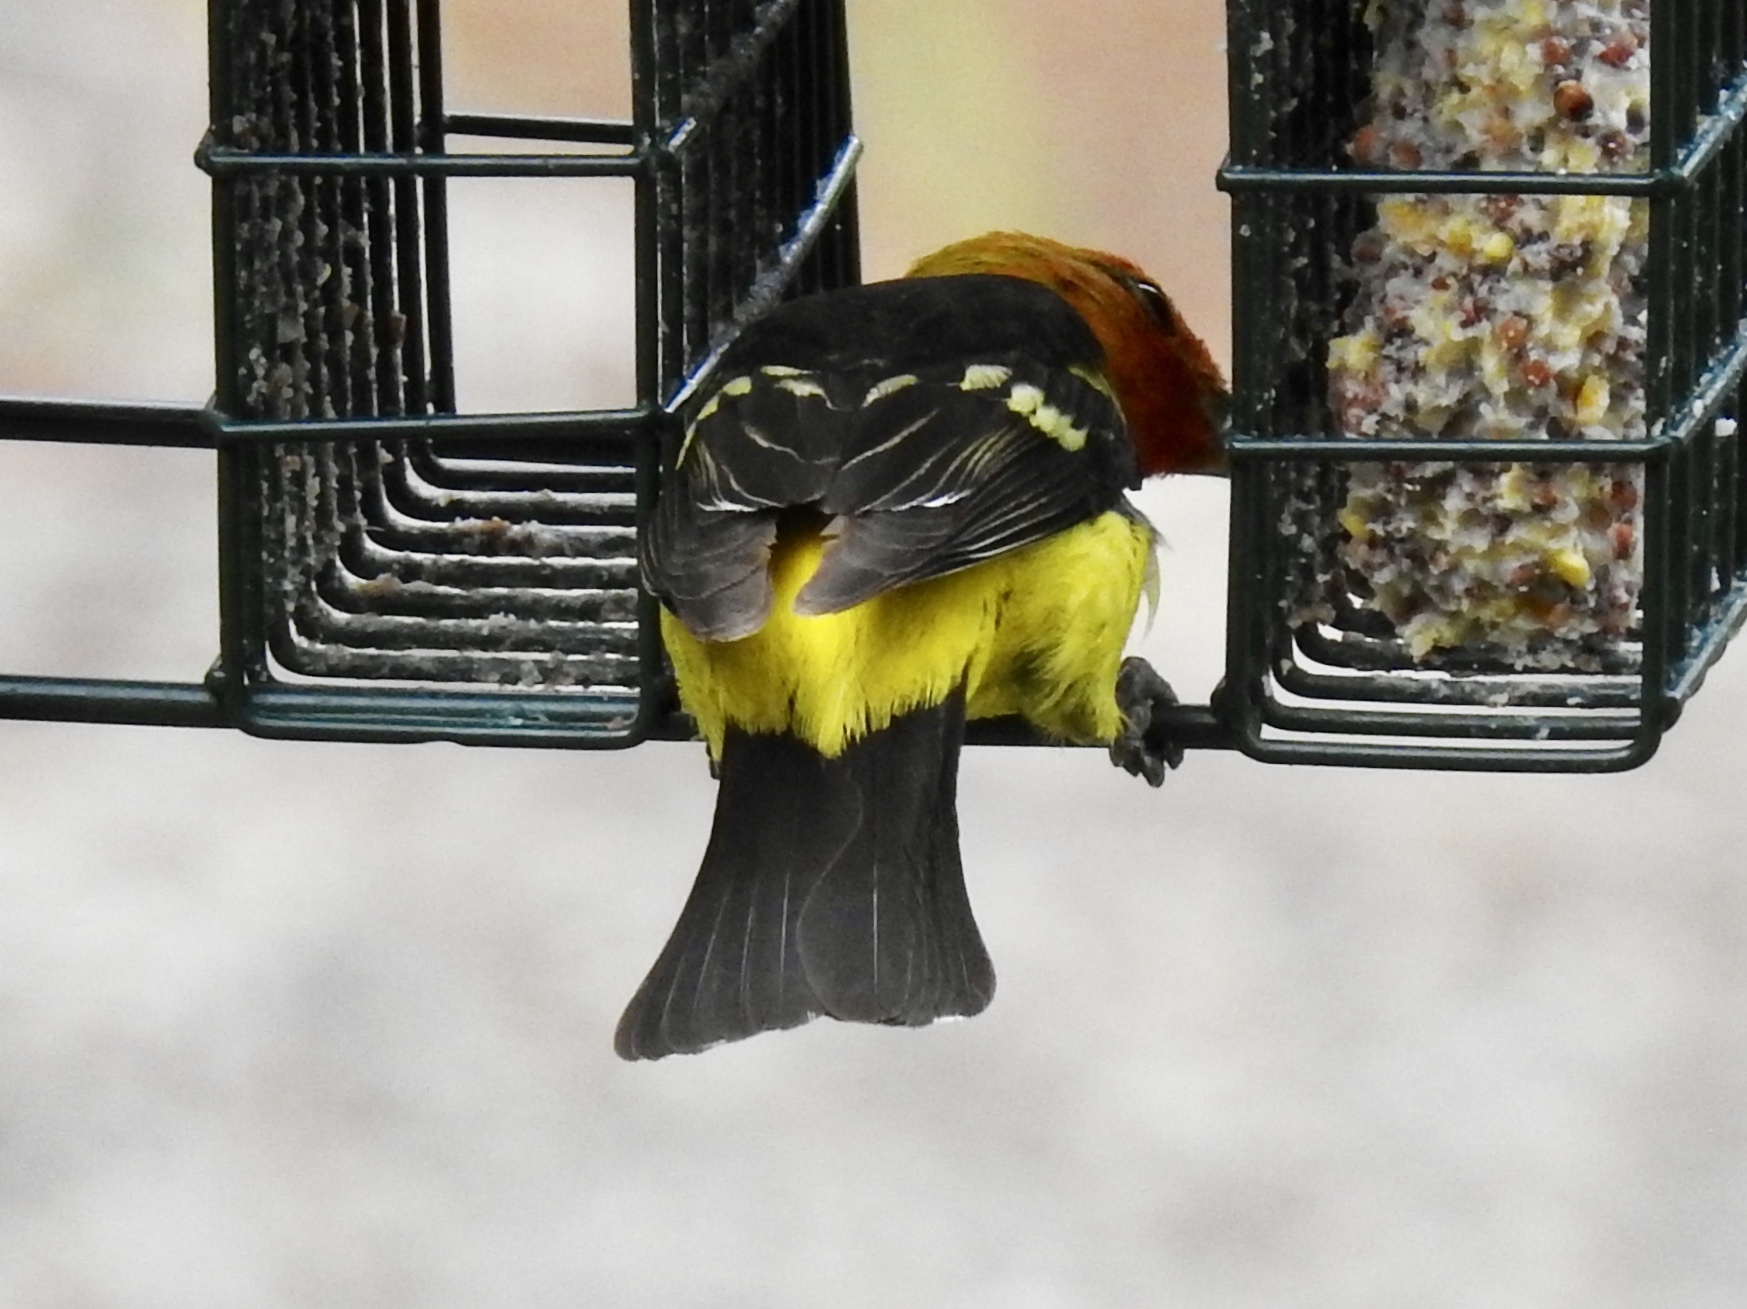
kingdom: Animalia
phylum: Chordata
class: Aves
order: Passeriformes
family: Cardinalidae
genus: Piranga
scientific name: Piranga ludoviciana
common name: Western tanager
